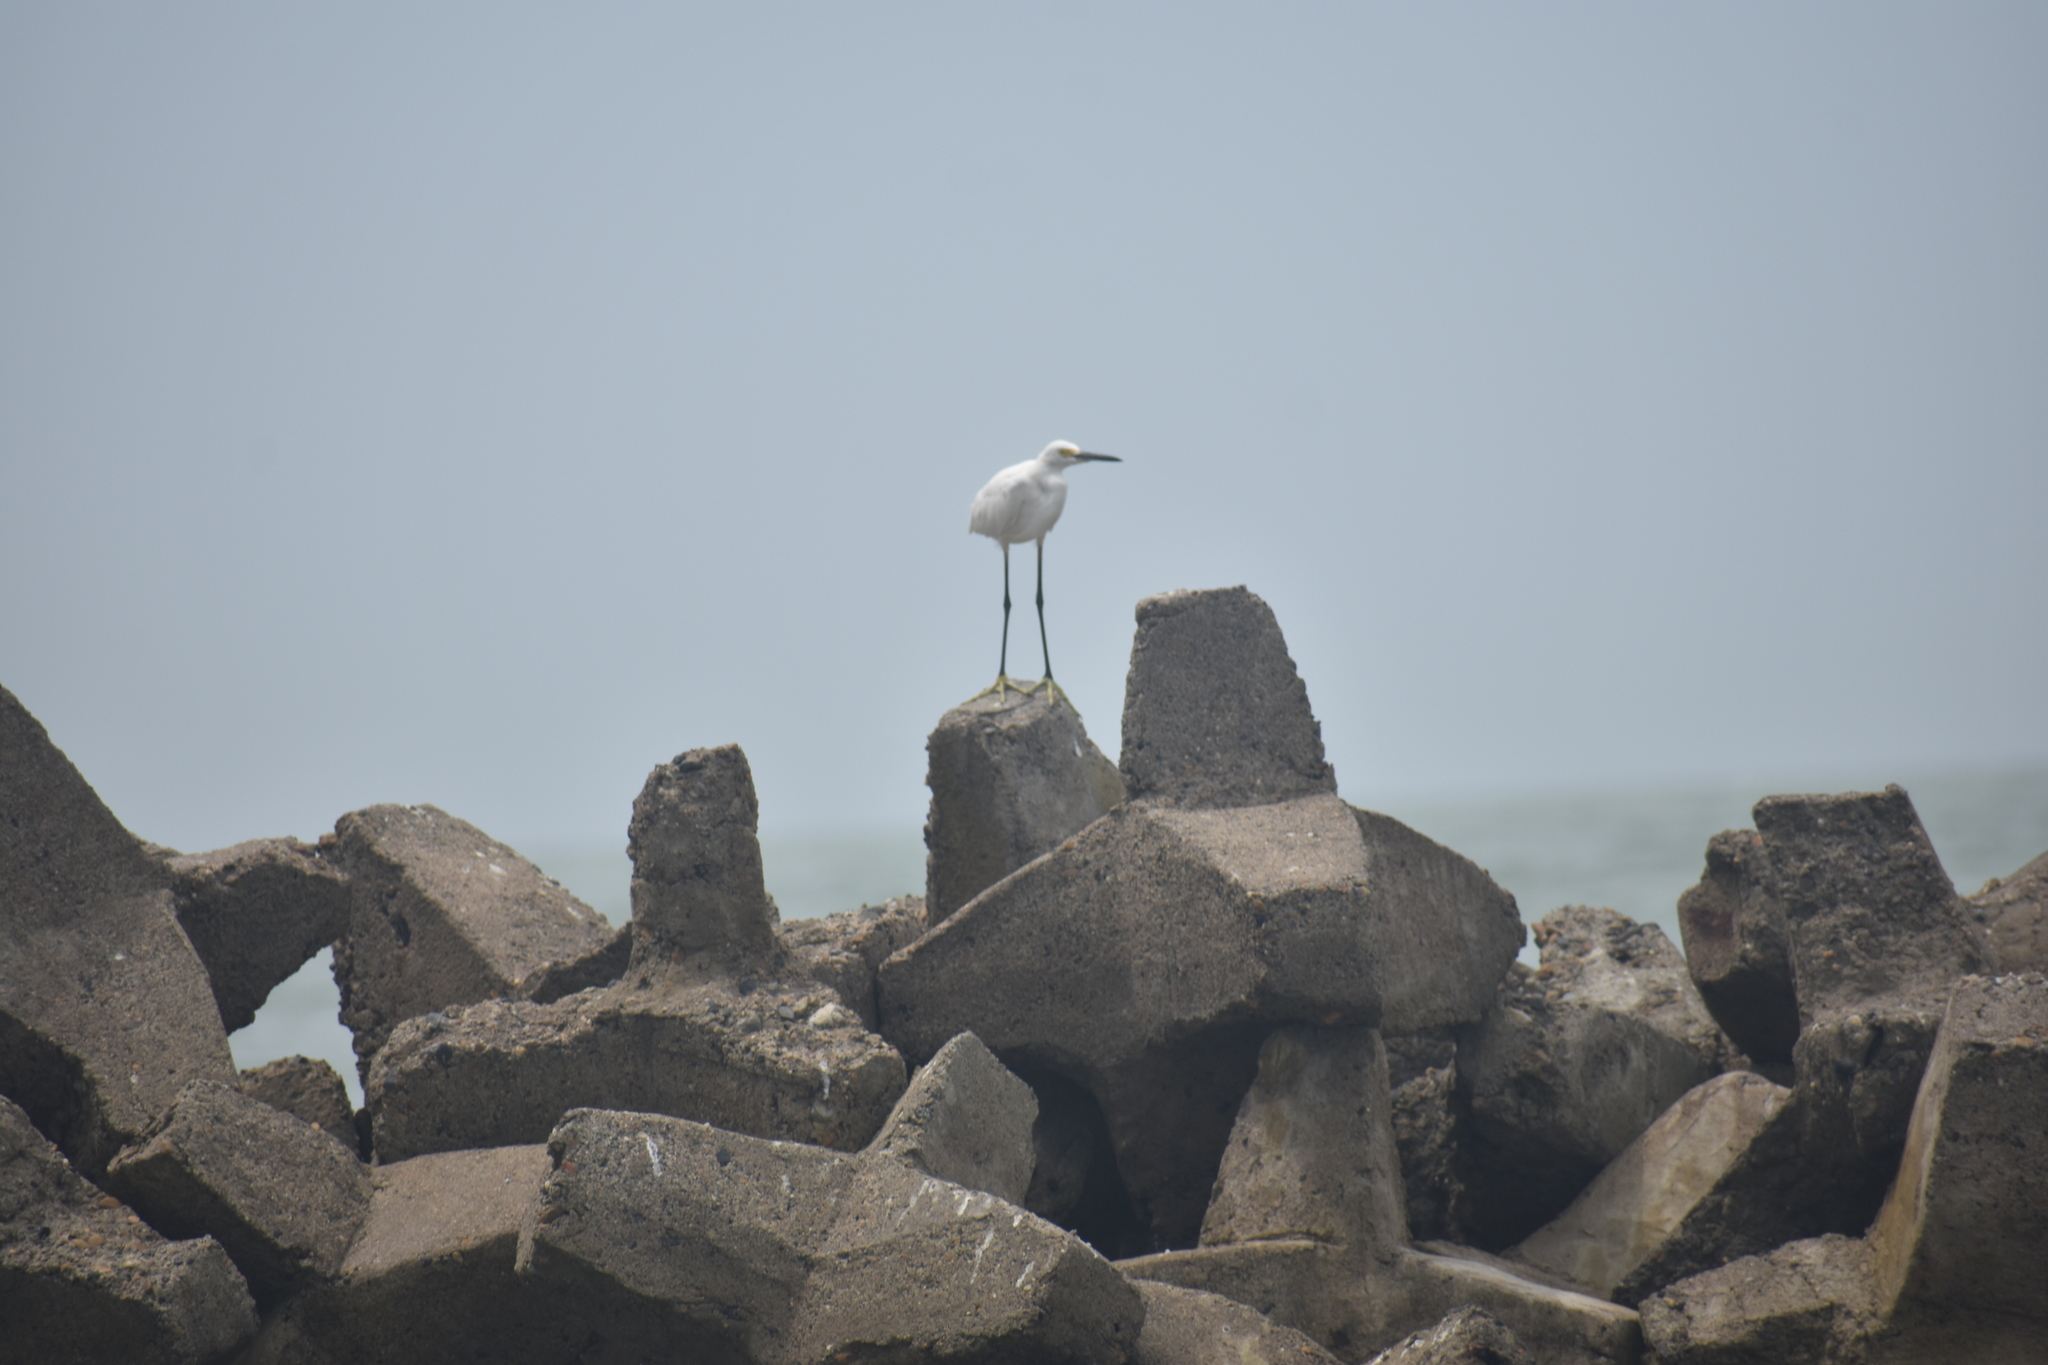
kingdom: Animalia
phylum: Chordata
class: Aves
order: Pelecaniformes
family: Ardeidae
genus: Egretta
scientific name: Egretta thula
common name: Snowy egret
